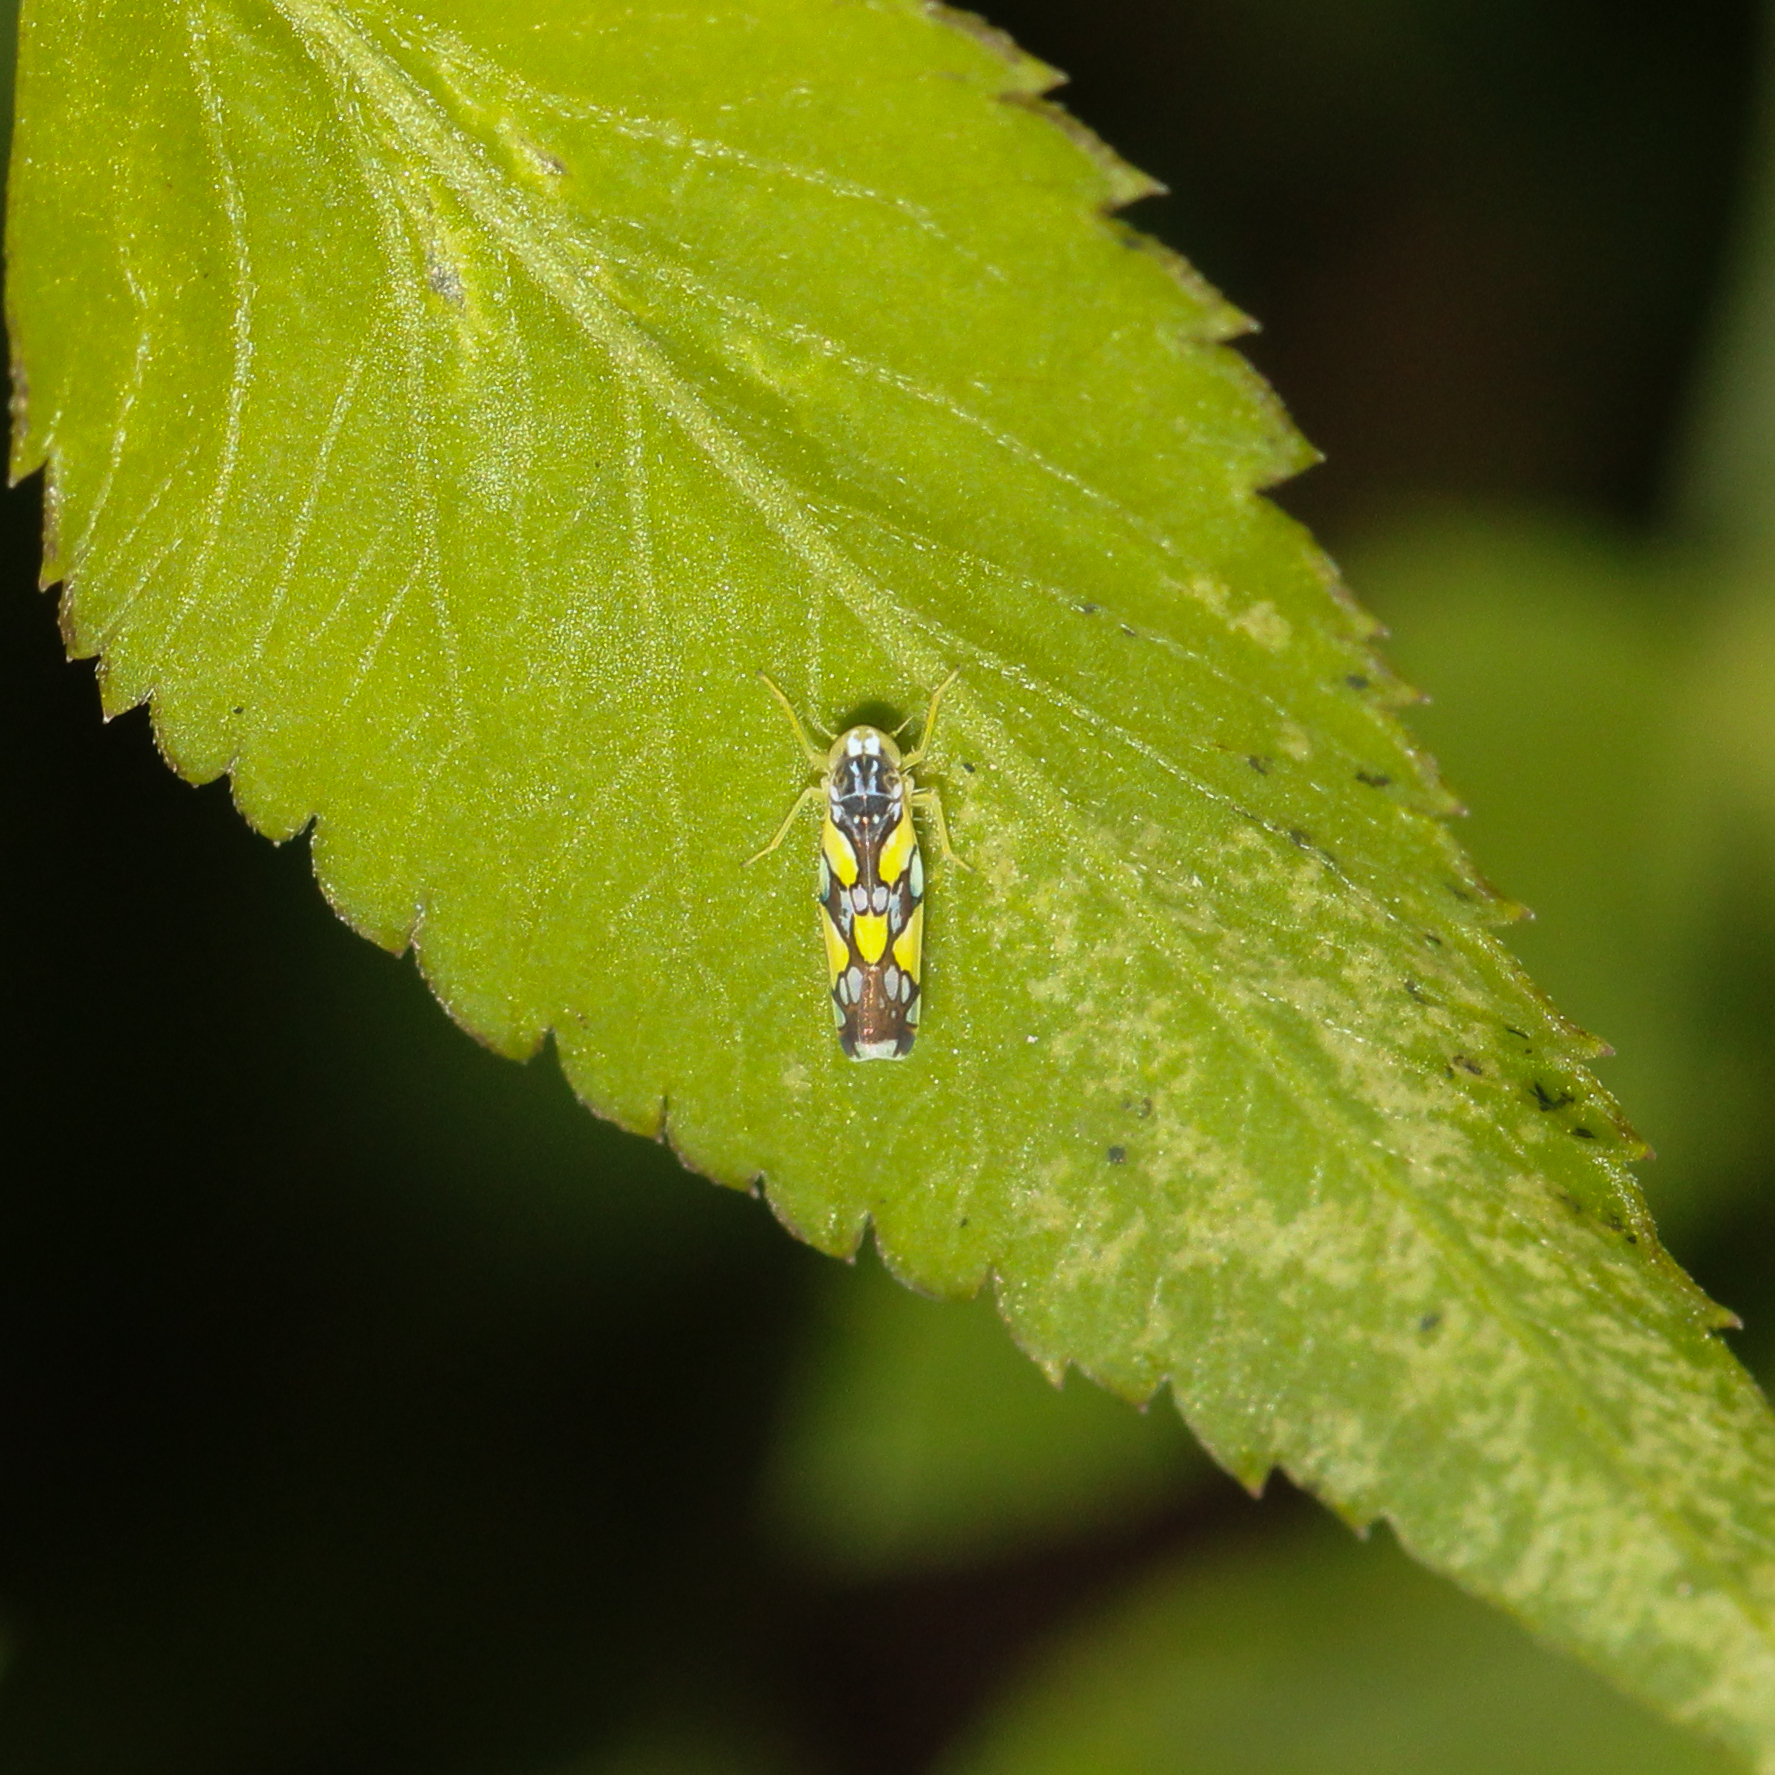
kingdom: Animalia
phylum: Arthropoda
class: Insecta
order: Hemiptera
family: Cicadellidae
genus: Protalebrella
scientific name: Protalebrella brasiliensis
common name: Brasilian leafhopper
